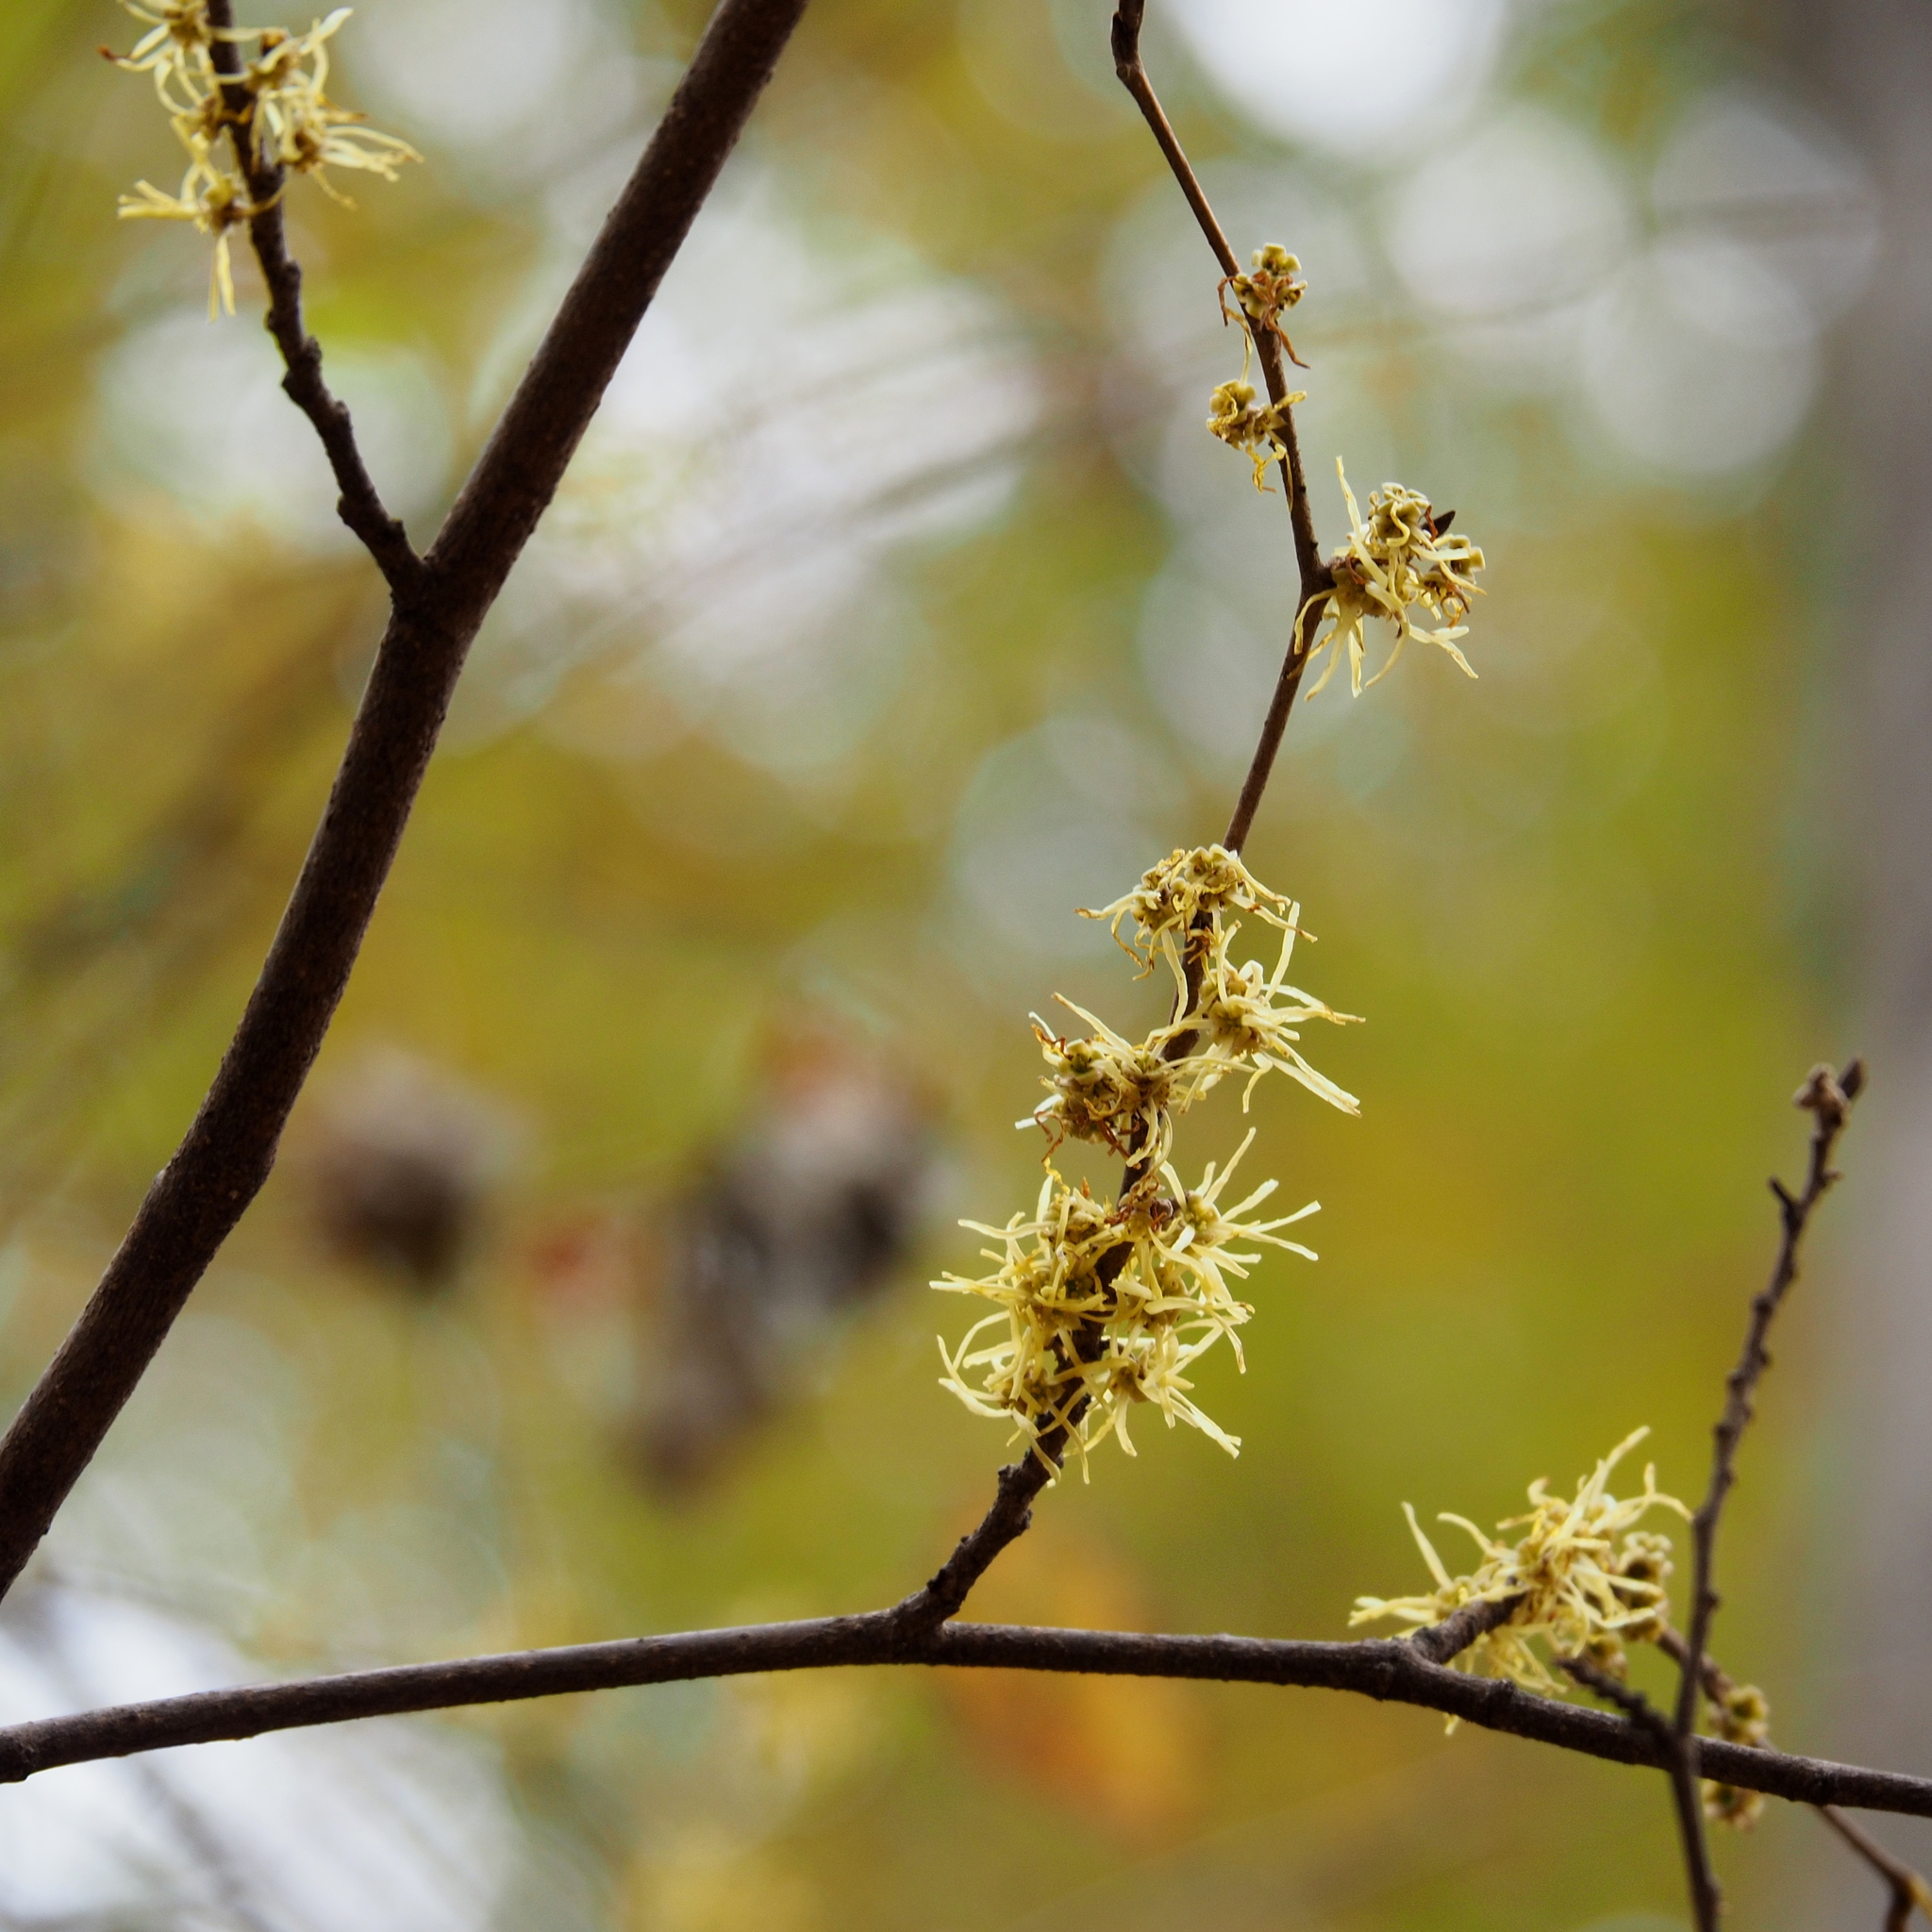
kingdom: Plantae
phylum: Tracheophyta
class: Magnoliopsida
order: Saxifragales
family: Hamamelidaceae
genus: Hamamelis
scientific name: Hamamelis virginiana
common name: Witch-hazel
